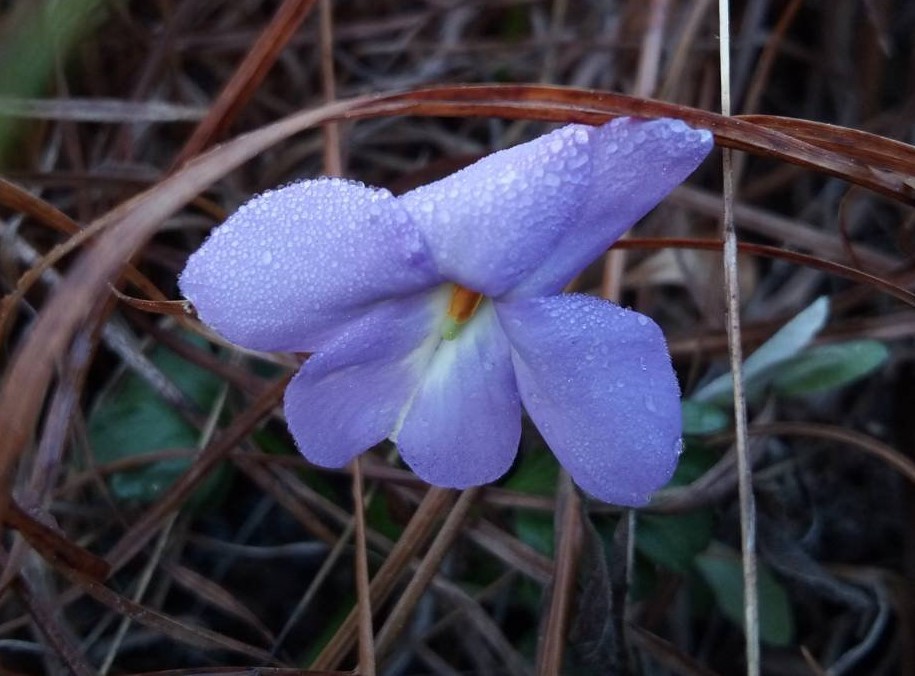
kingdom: Plantae
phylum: Tracheophyta
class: Magnoliopsida
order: Malpighiales
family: Violaceae
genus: Viola
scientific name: Viola pedata
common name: Pansy violet
